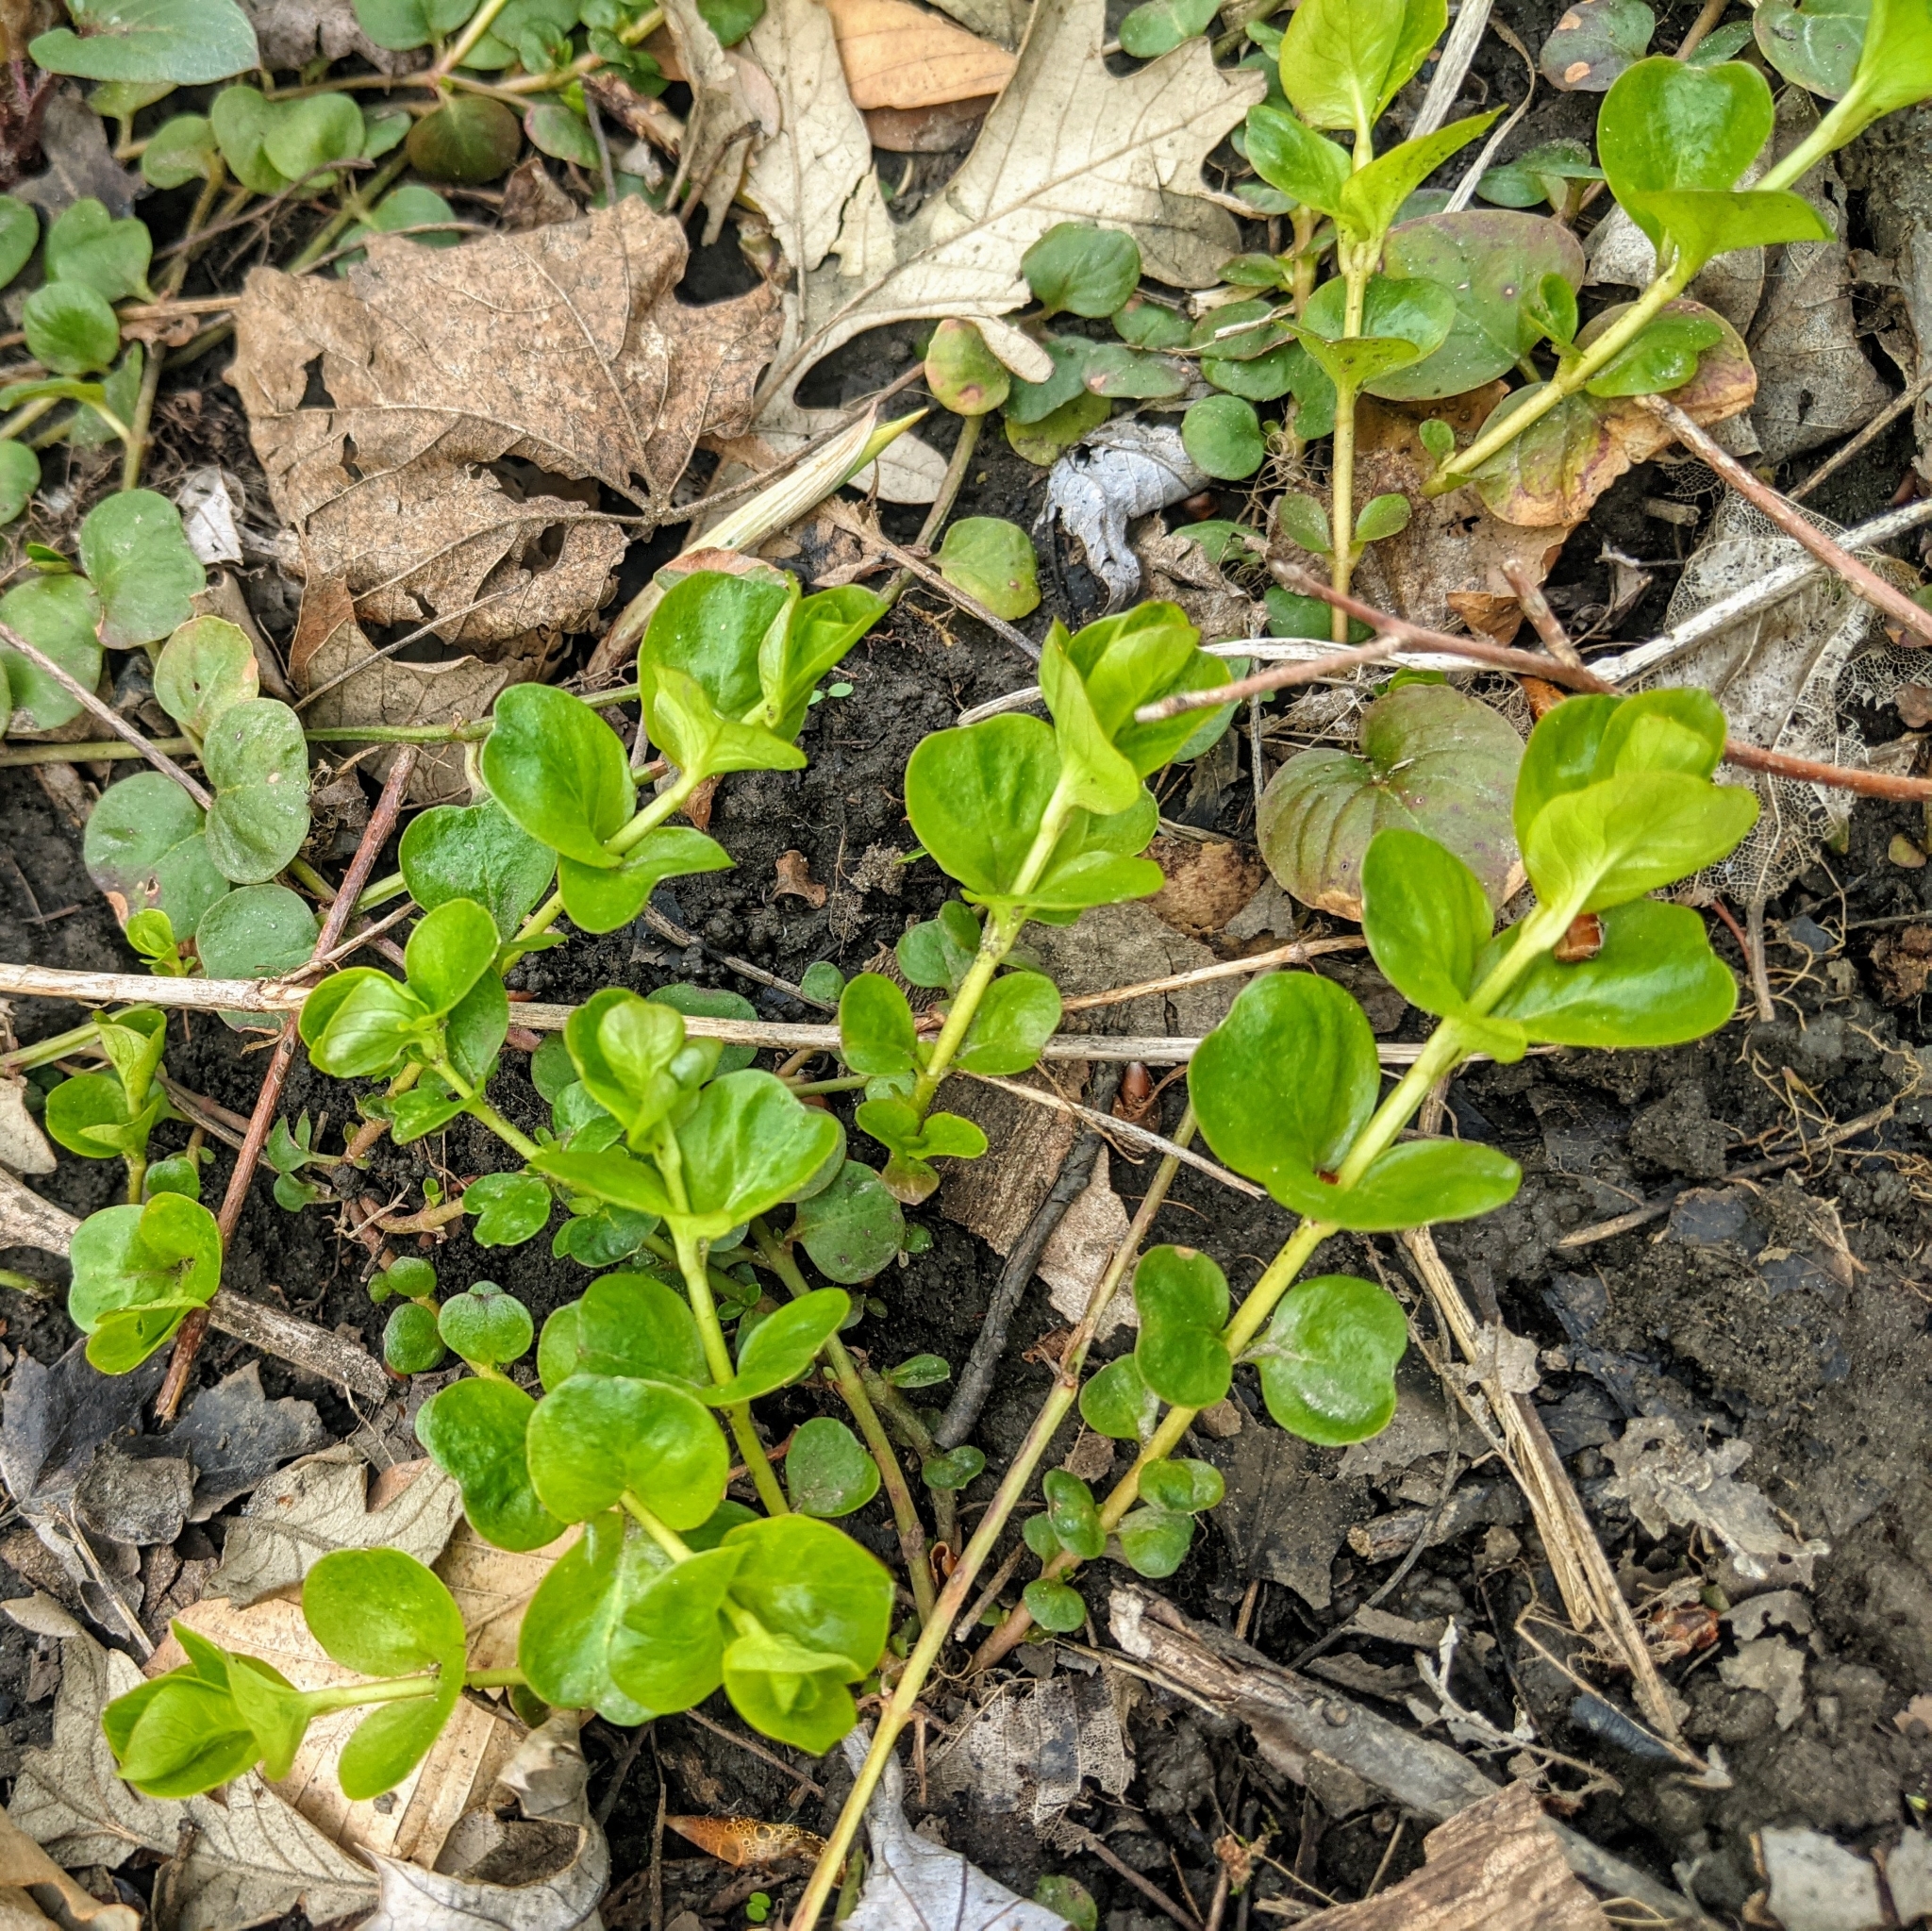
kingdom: Plantae
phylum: Tracheophyta
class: Magnoliopsida
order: Ericales
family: Primulaceae
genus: Lysimachia
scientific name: Lysimachia nummularia
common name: Moneywort
